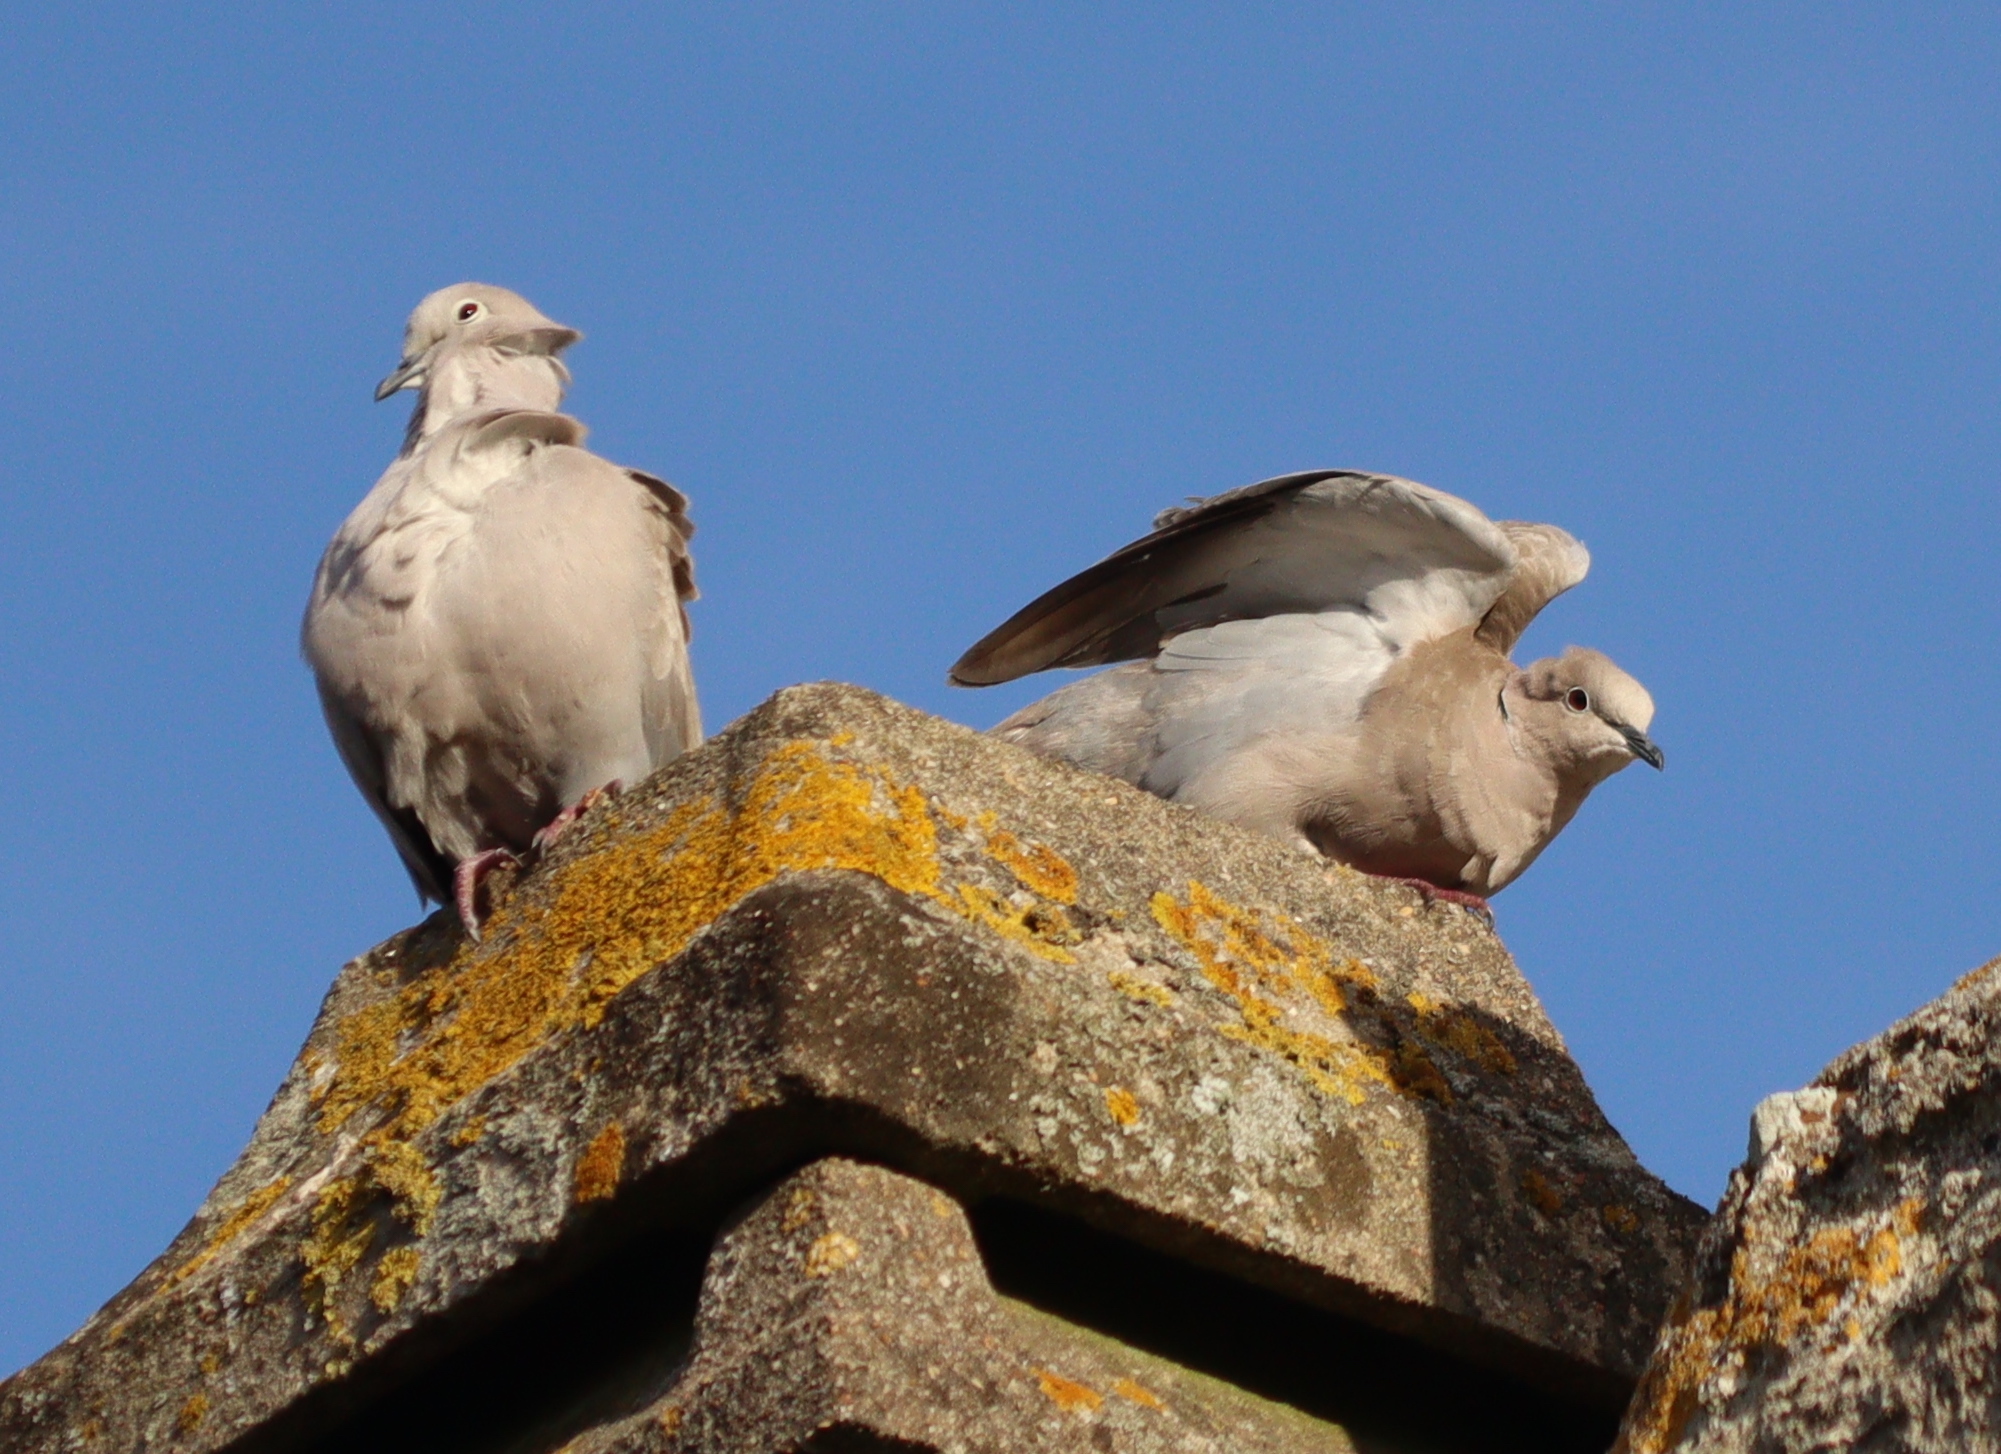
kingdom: Animalia
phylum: Chordata
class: Aves
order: Columbiformes
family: Columbidae
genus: Streptopelia
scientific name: Streptopelia decaocto
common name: Eurasian collared dove
